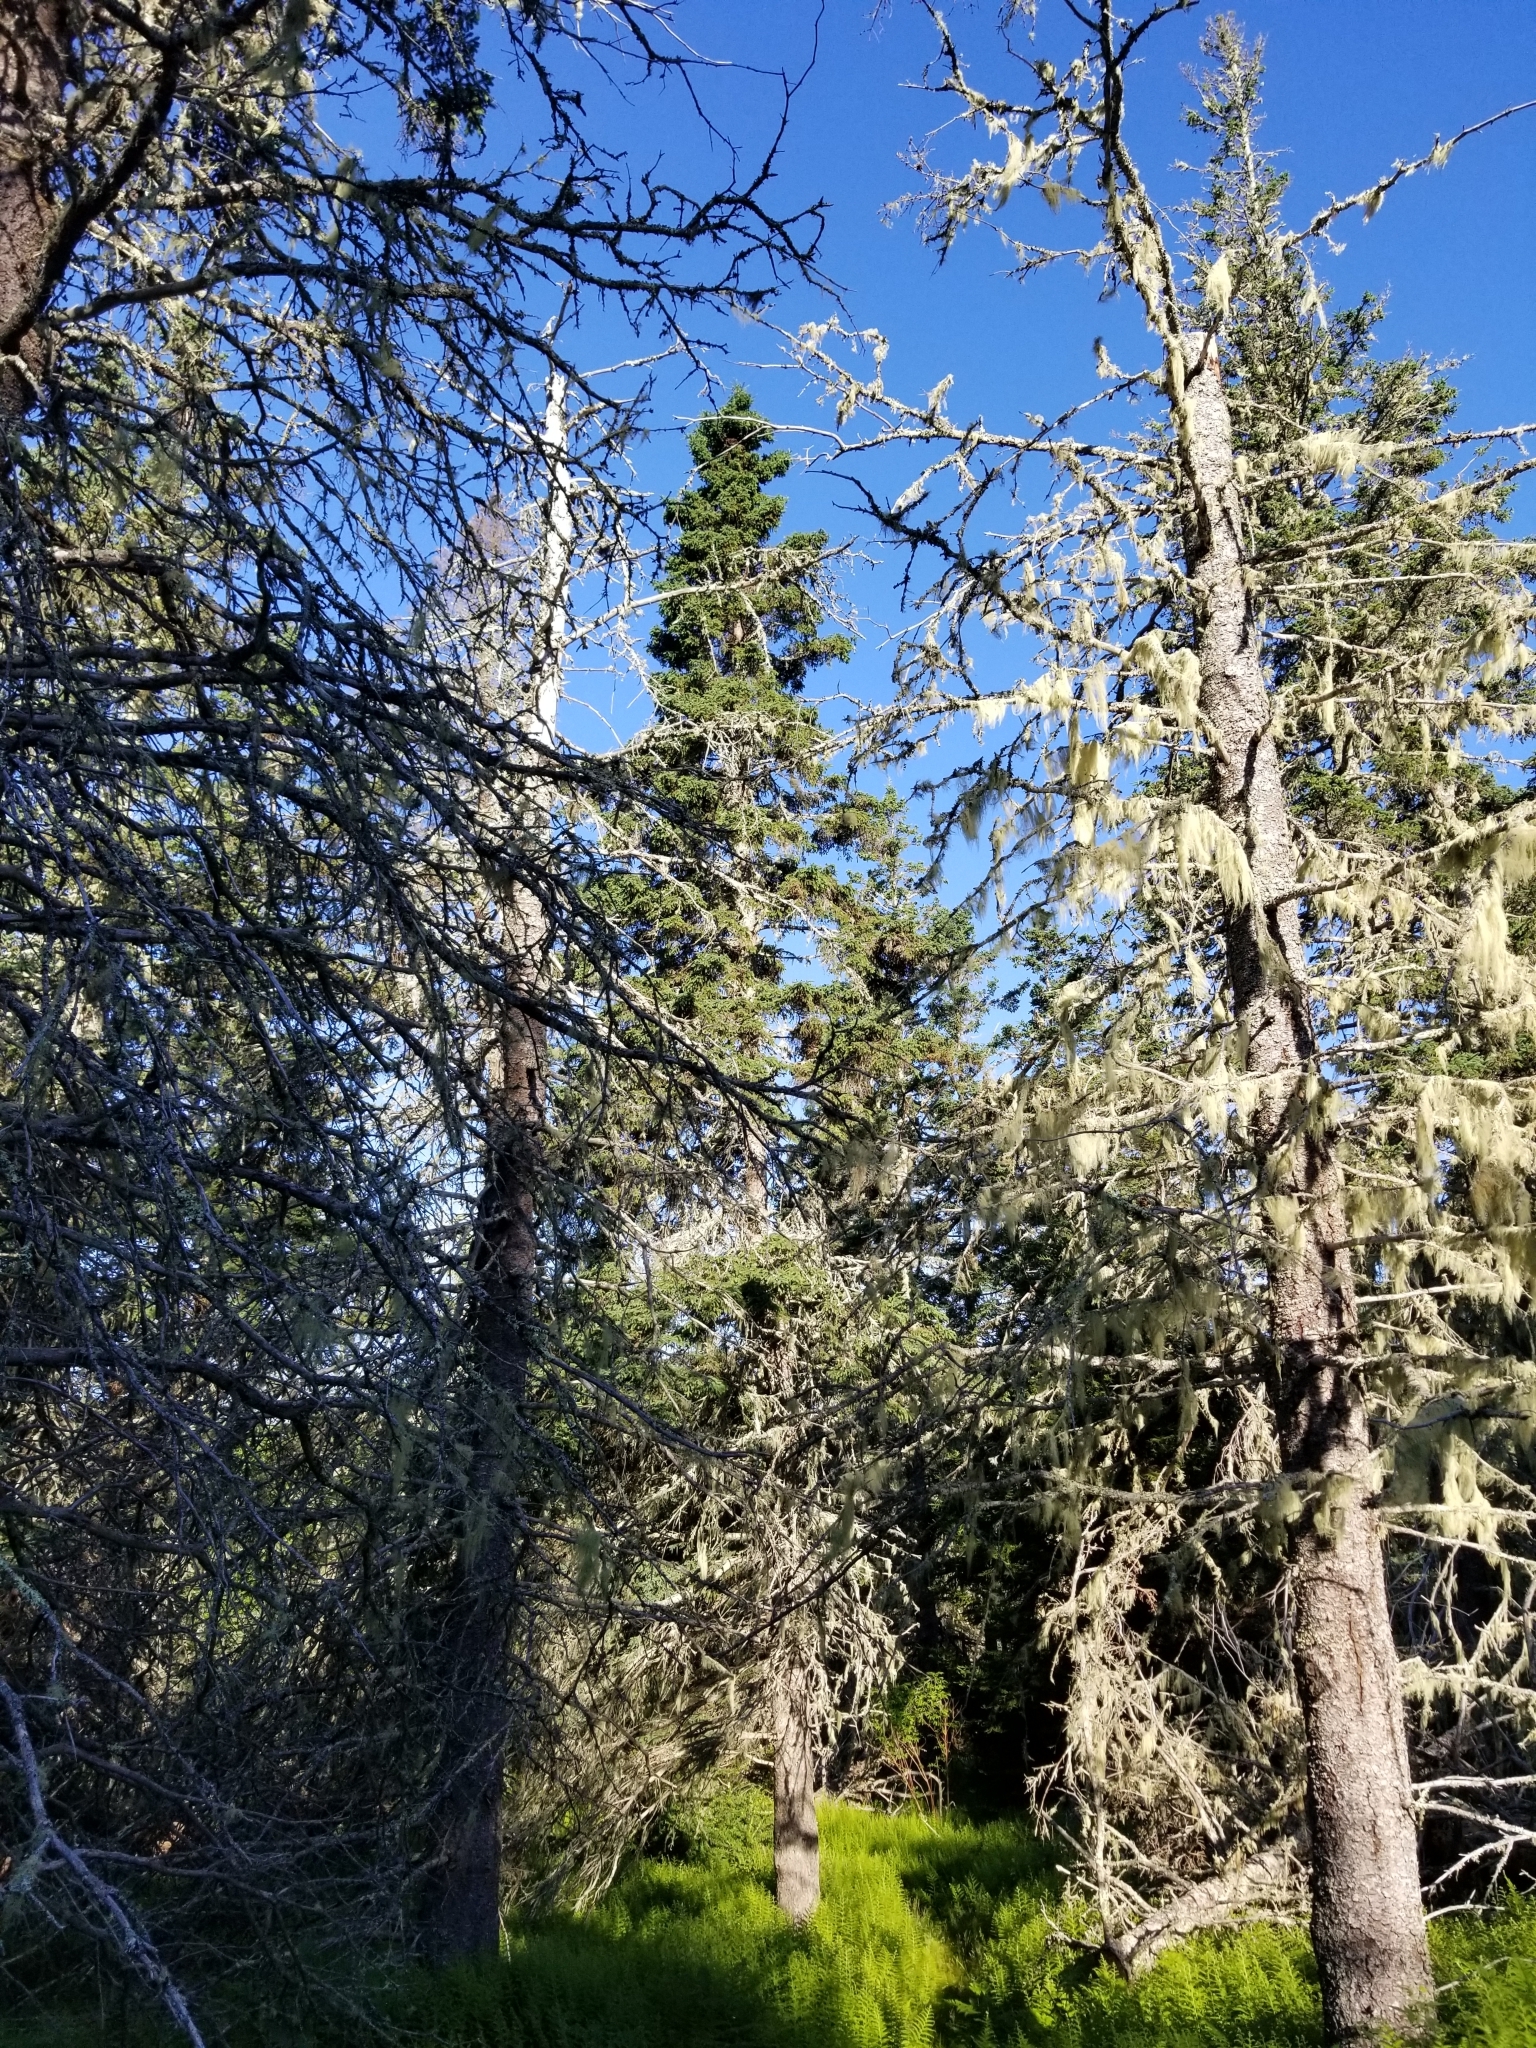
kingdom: Plantae
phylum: Tracheophyta
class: Pinopsida
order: Pinales
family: Pinaceae
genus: Picea
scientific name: Picea glauca
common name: White spruce
